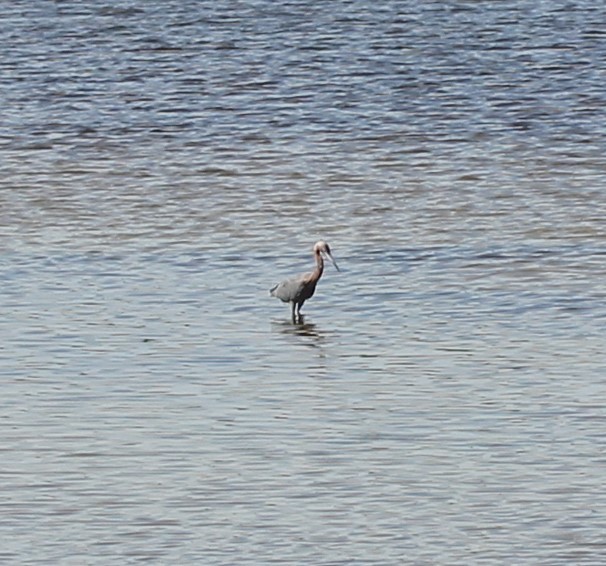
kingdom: Animalia
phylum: Chordata
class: Aves
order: Pelecaniformes
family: Ardeidae
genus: Egretta
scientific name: Egretta rufescens
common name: Reddish egret
